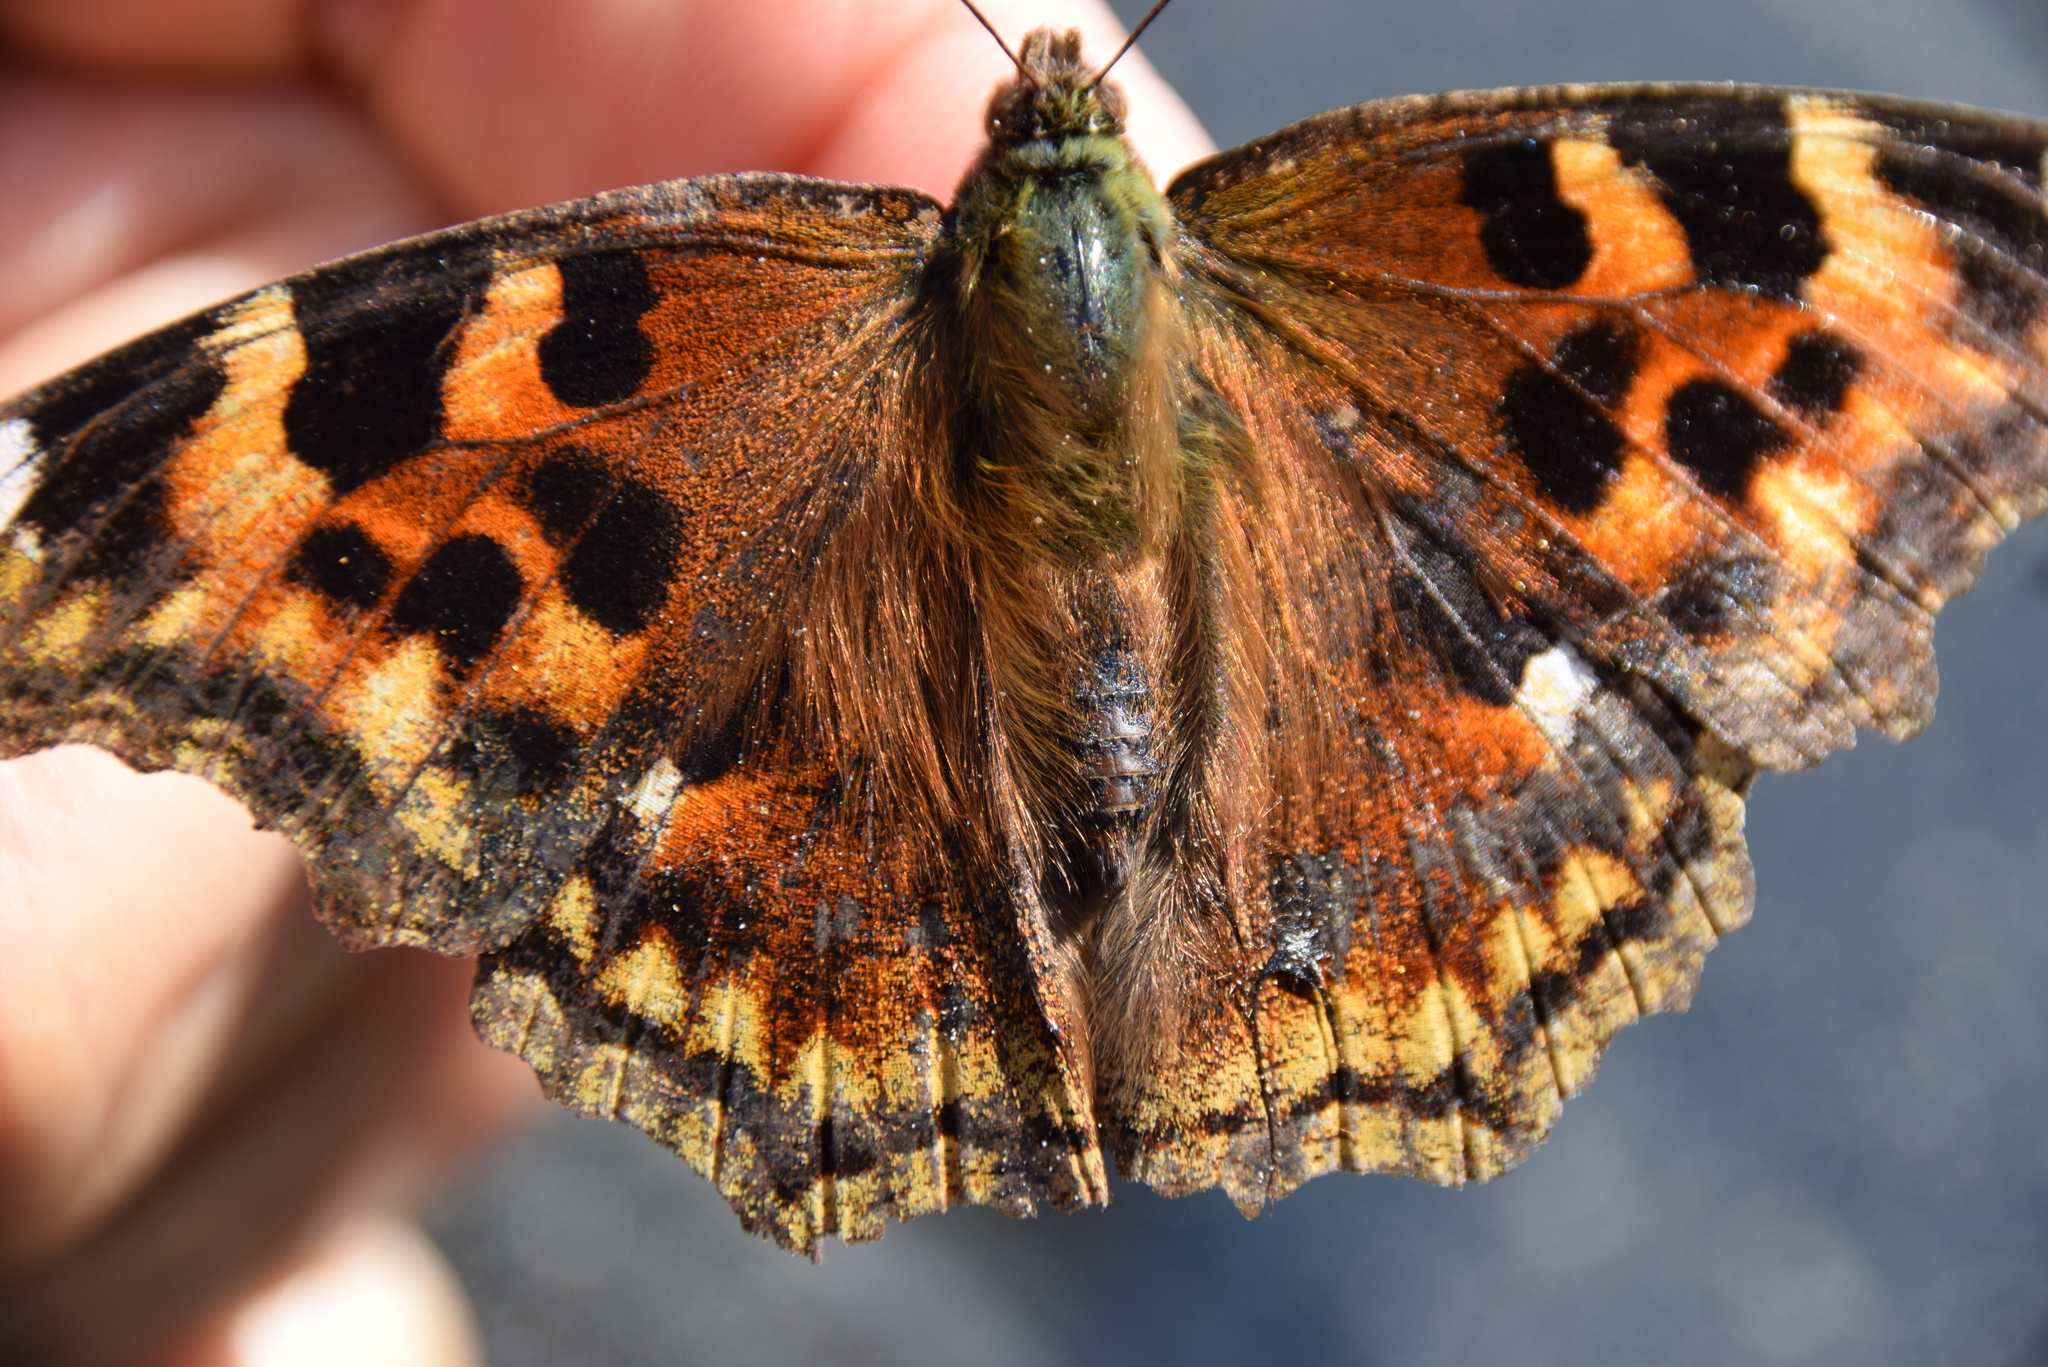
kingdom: Animalia
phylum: Arthropoda
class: Insecta
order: Lepidoptera
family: Nymphalidae
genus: Polygonia
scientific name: Polygonia vaualbum
